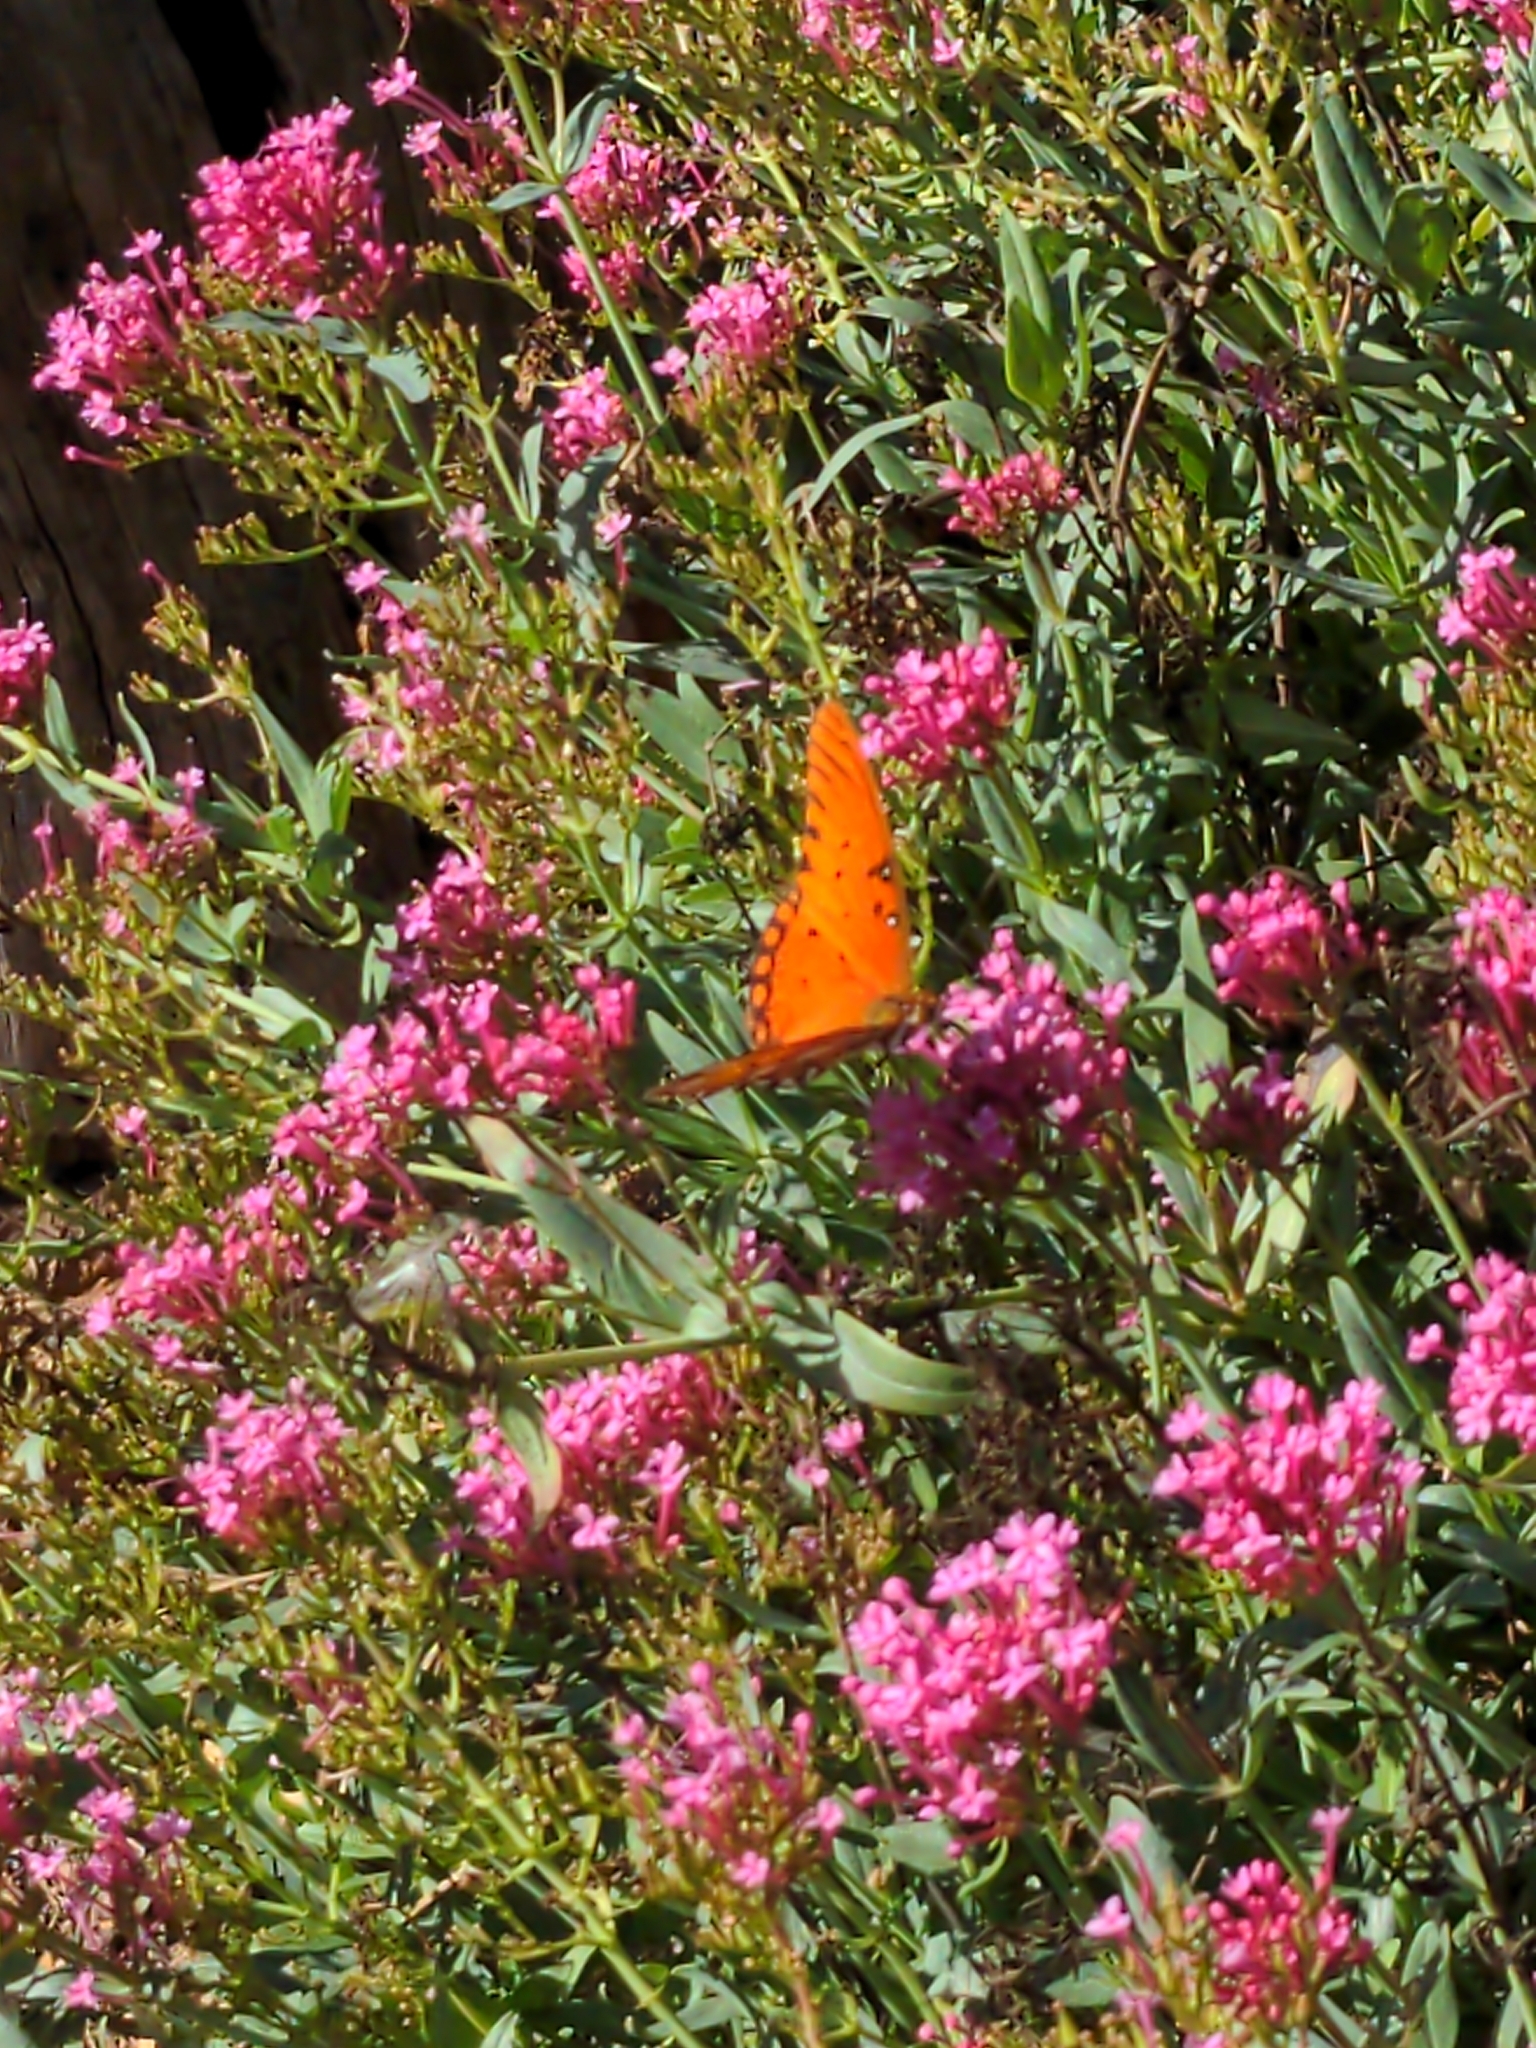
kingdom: Animalia
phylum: Arthropoda
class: Insecta
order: Lepidoptera
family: Nymphalidae
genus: Dione
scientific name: Dione vanillae
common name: Gulf fritillary
